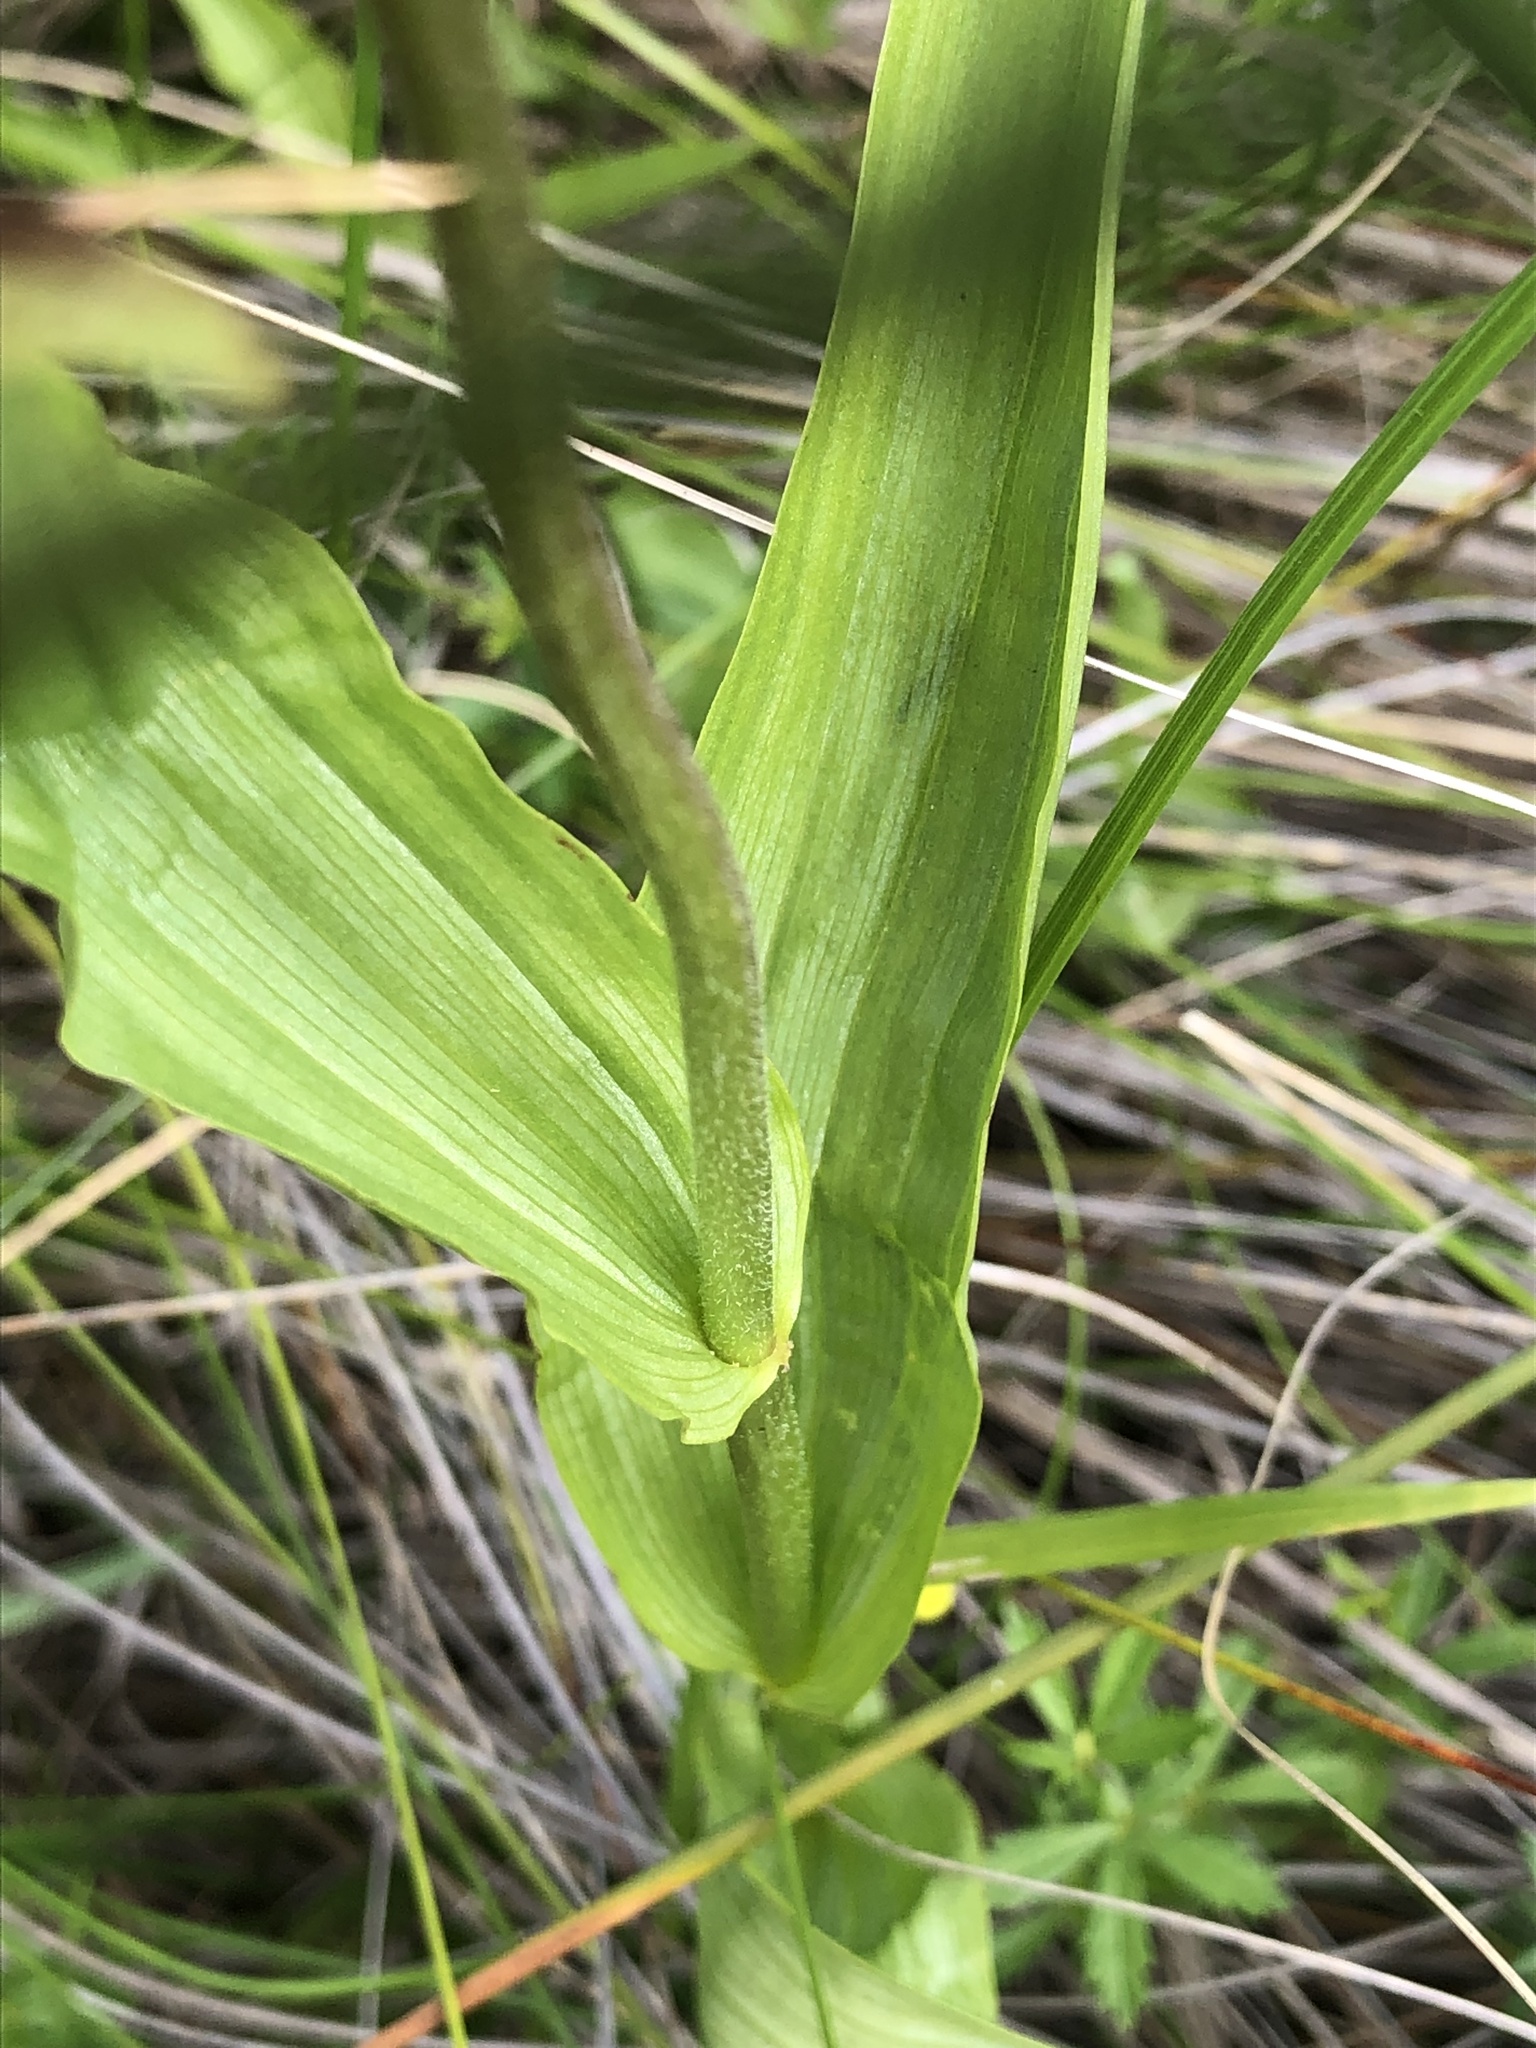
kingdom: Plantae
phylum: Tracheophyta
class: Liliopsida
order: Asparagales
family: Orchidaceae
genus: Epipactis
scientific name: Epipactis palustris
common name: Marsh helleborine
